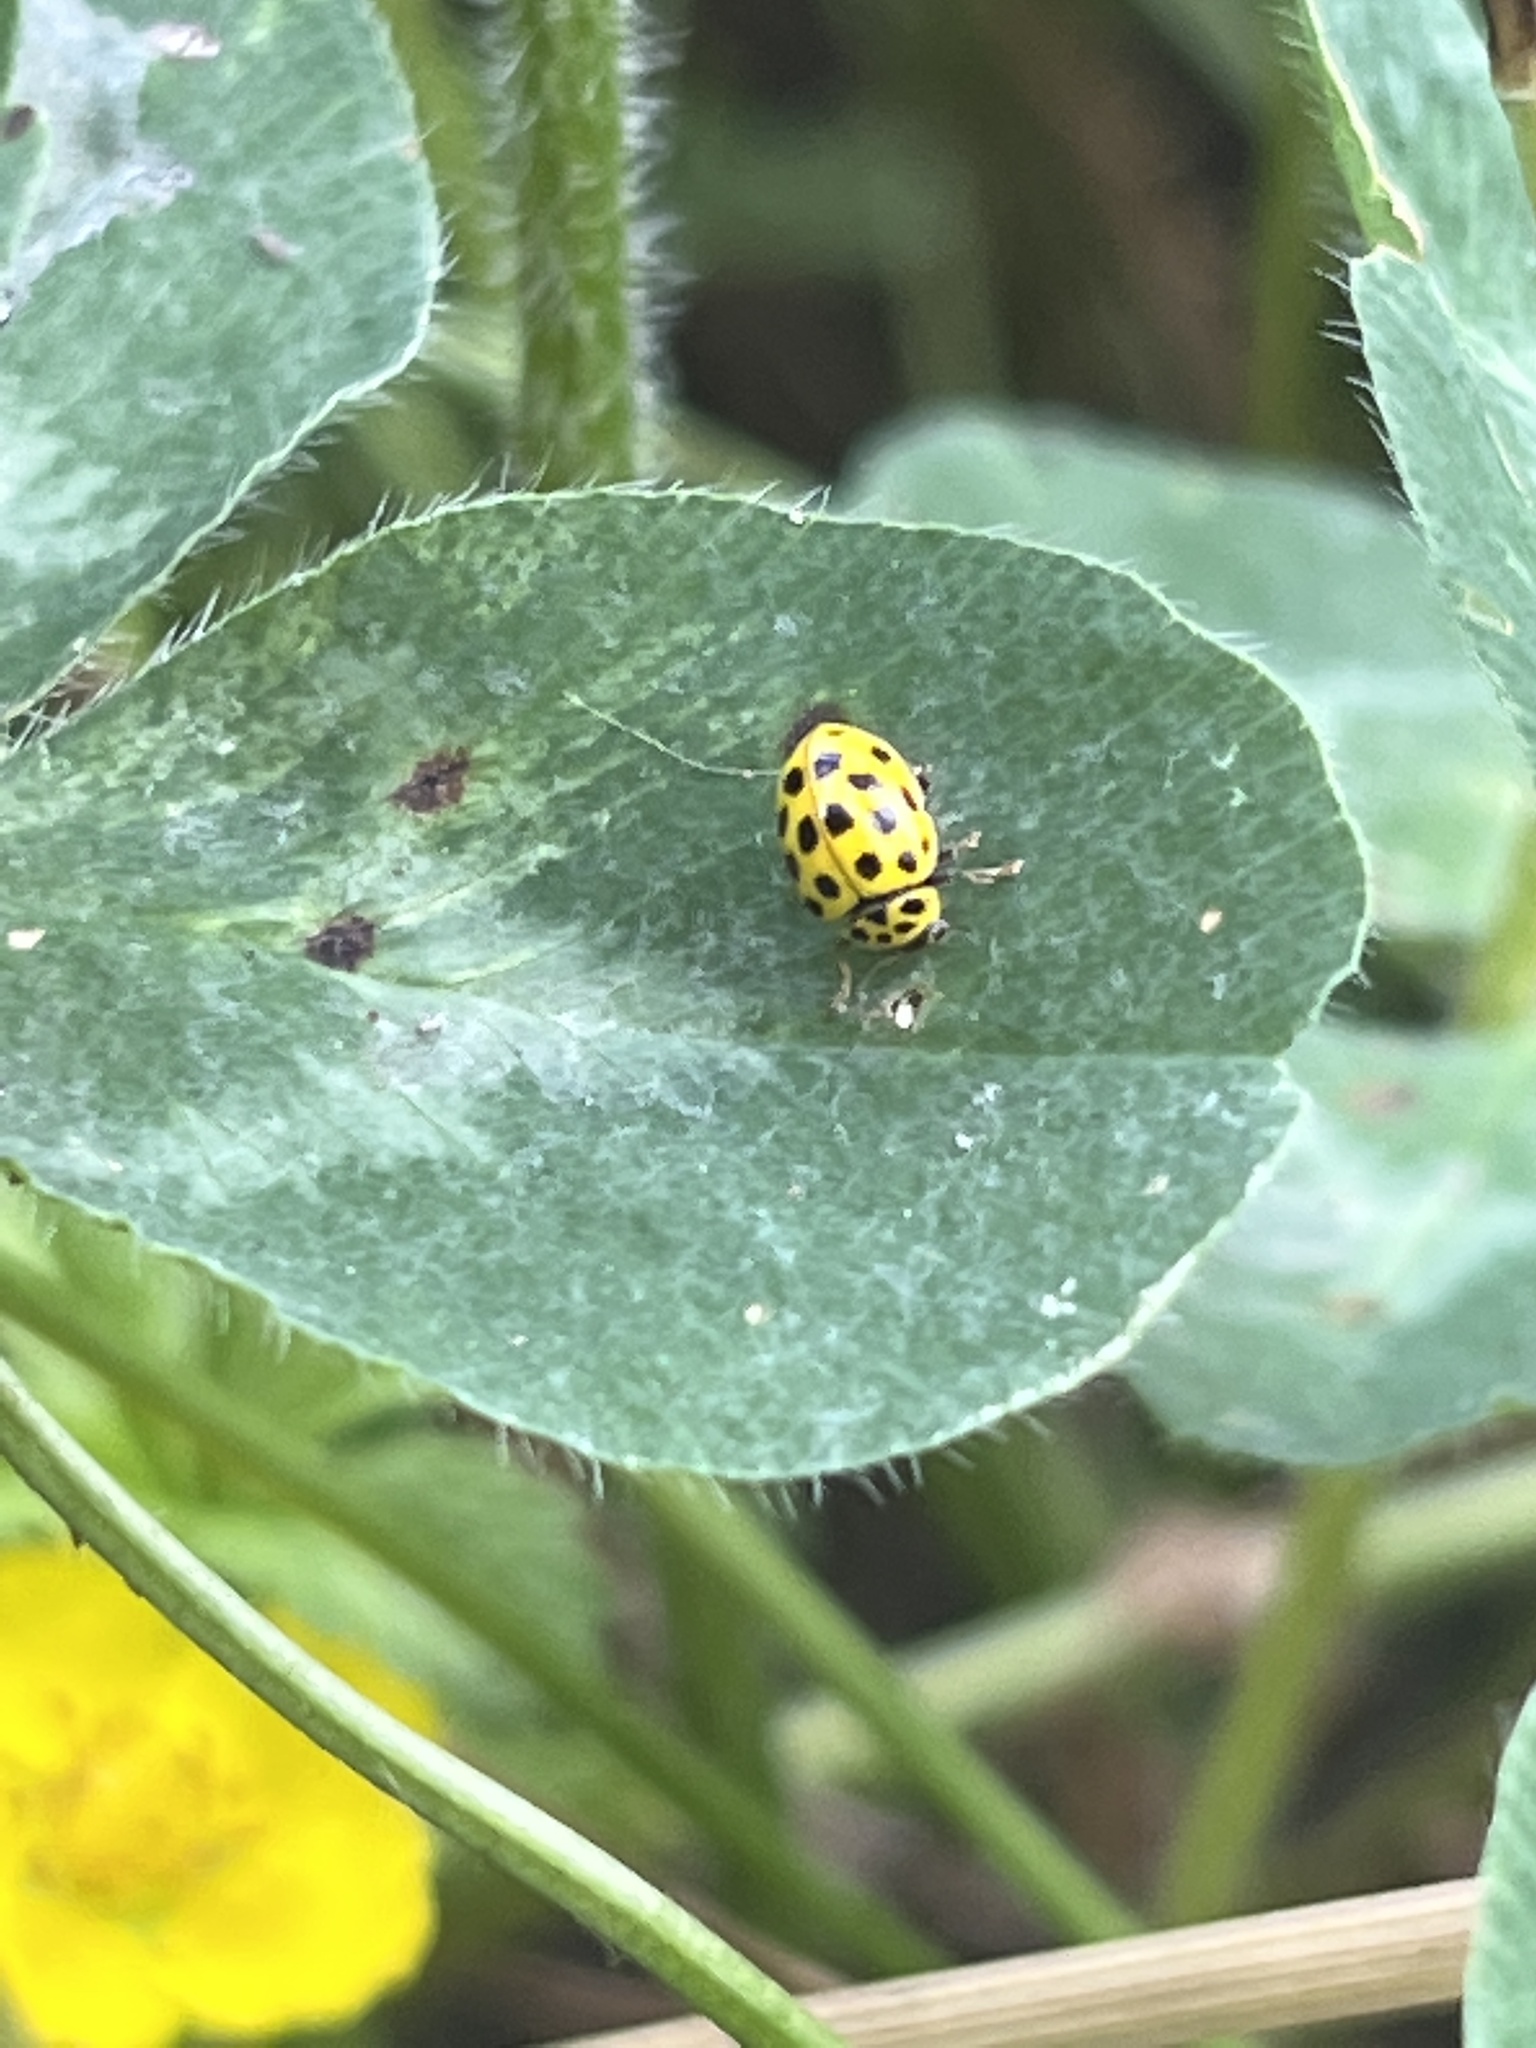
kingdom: Animalia
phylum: Arthropoda
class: Insecta
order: Coleoptera
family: Coccinellidae
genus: Psyllobora
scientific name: Psyllobora vigintiduopunctata
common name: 22-spot ladybird
